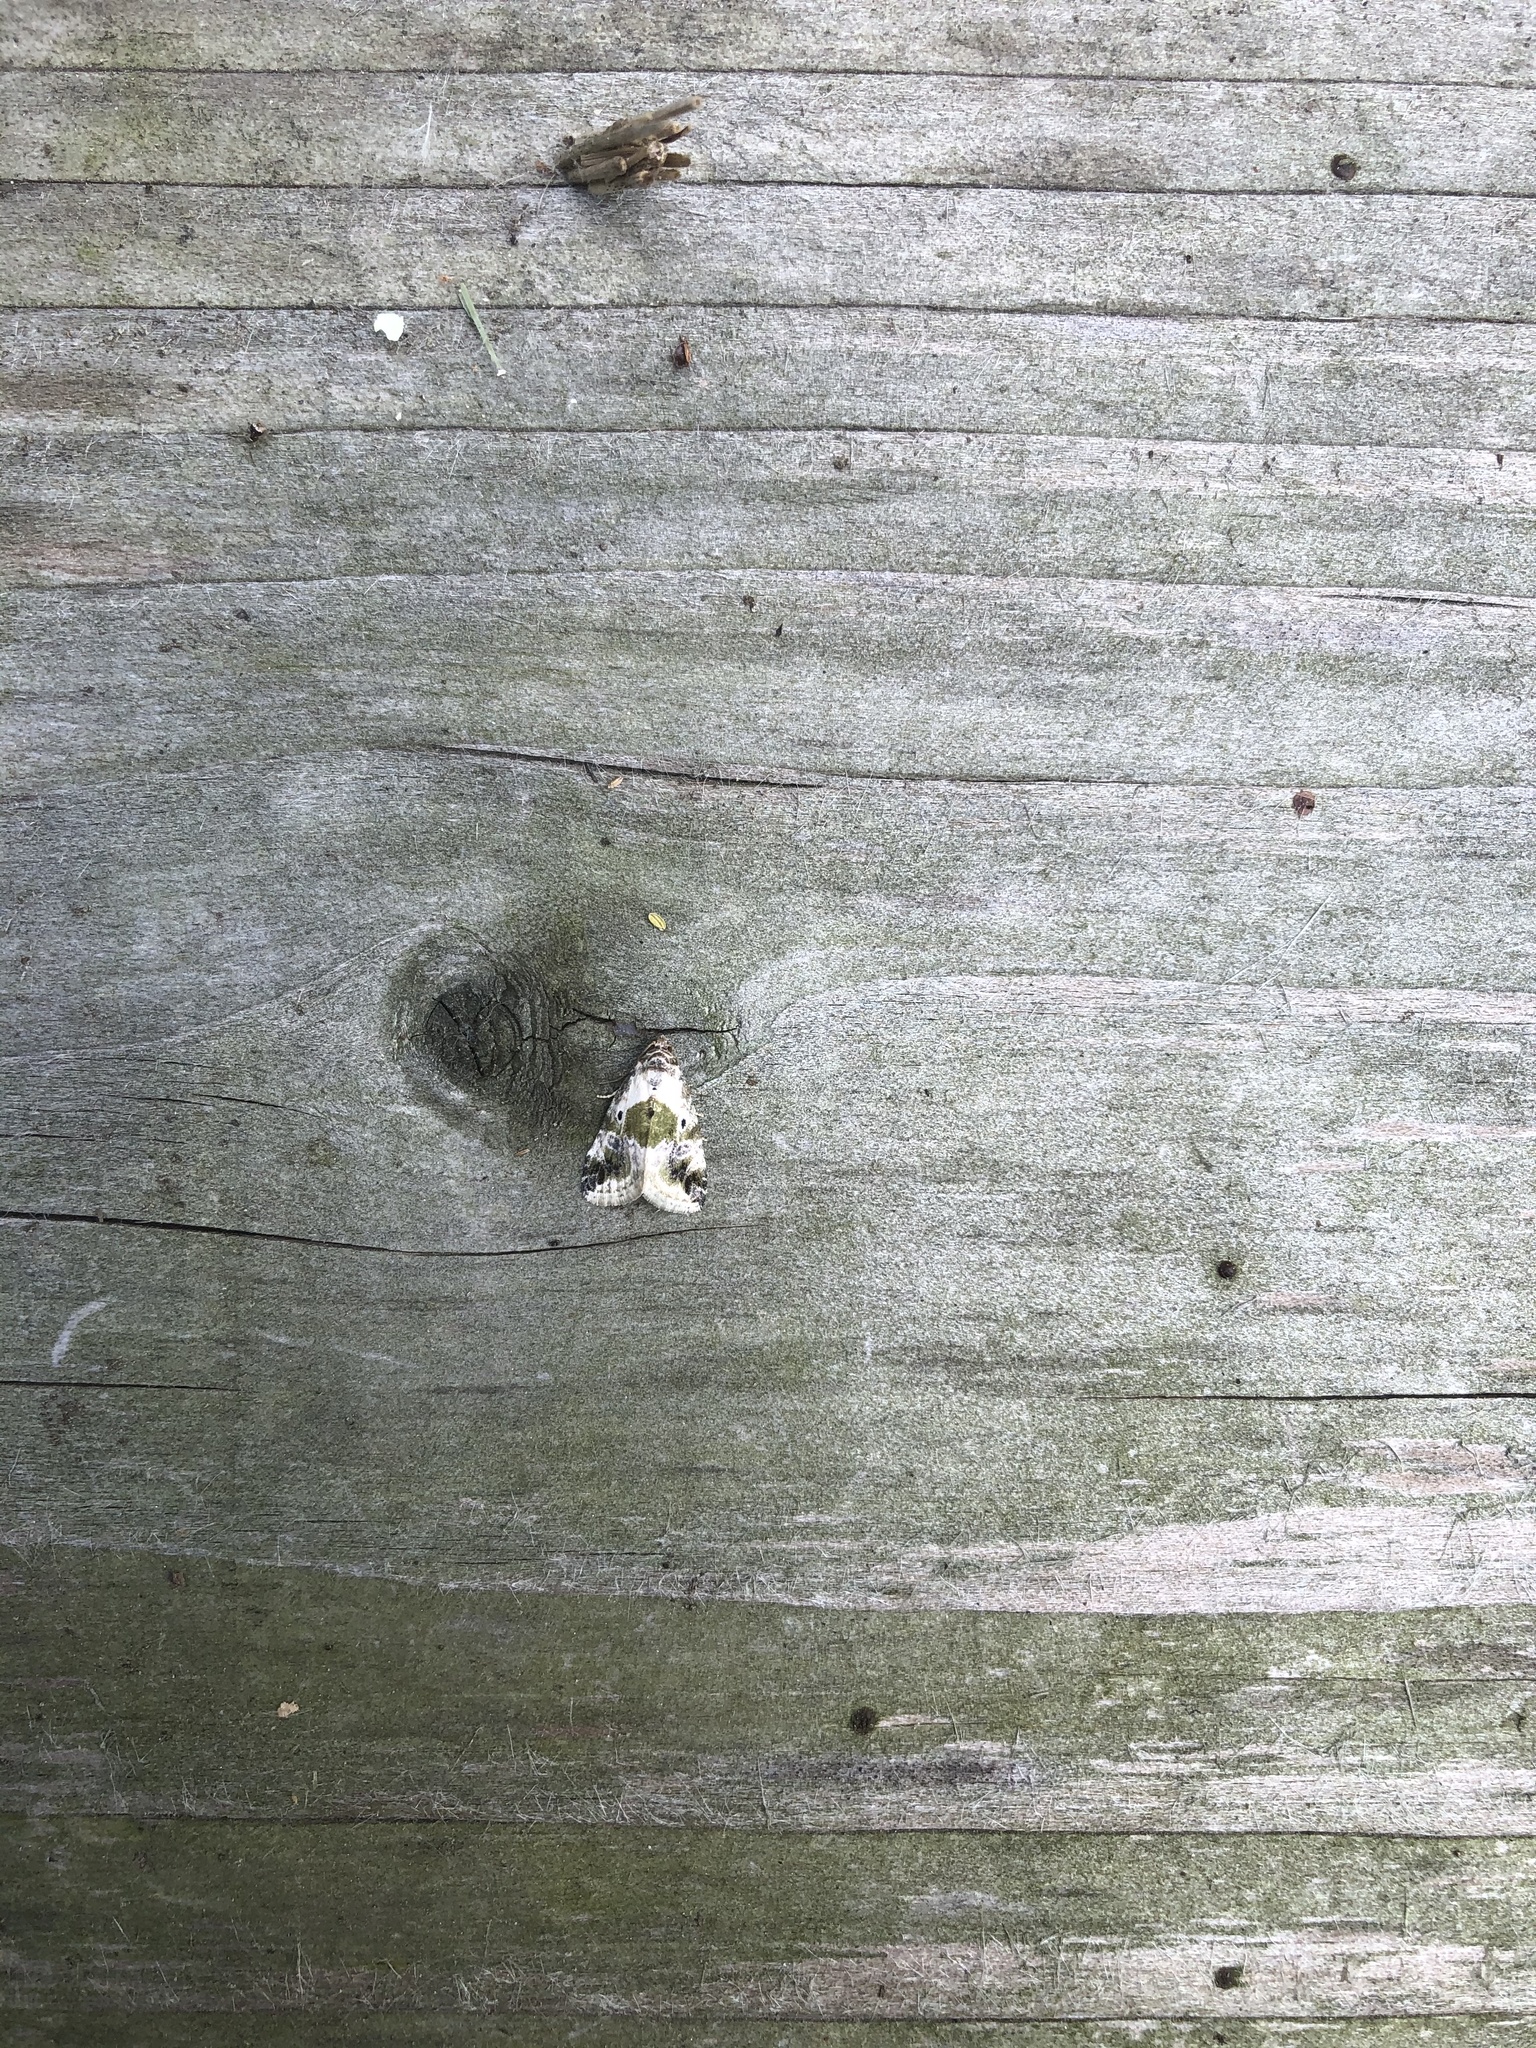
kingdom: Animalia
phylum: Arthropoda
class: Insecta
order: Lepidoptera
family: Noctuidae
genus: Maliattha
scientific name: Maliattha synochitis
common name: Black-dotted glyph
